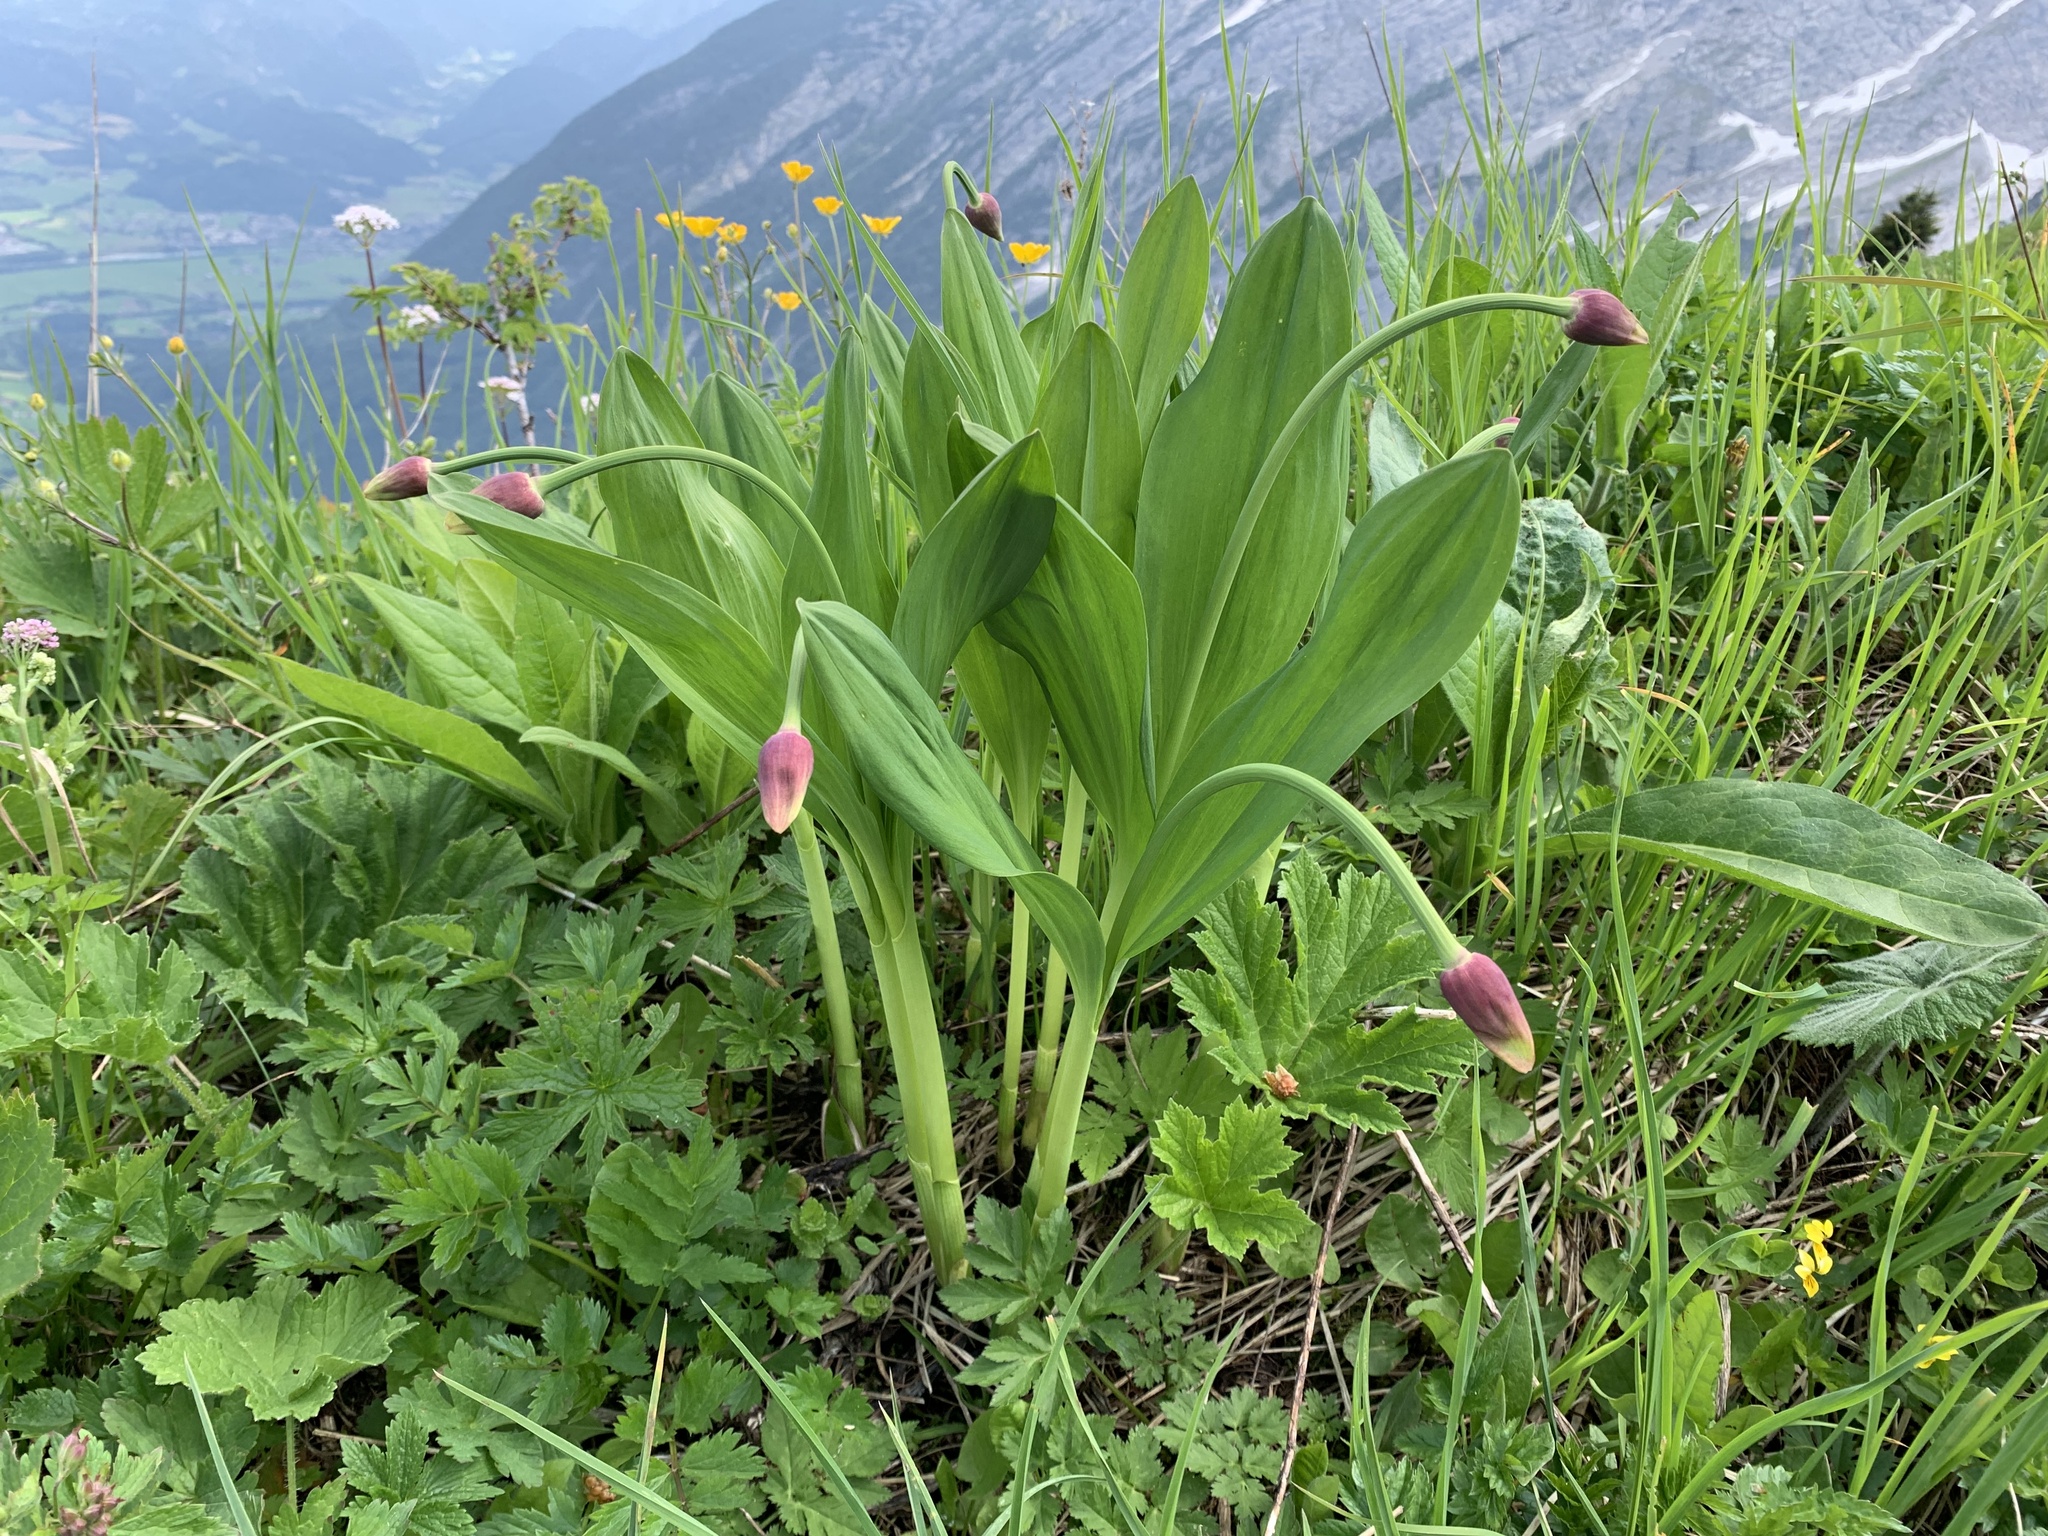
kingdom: Plantae
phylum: Tracheophyta
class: Liliopsida
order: Asparagales
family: Amaryllidaceae
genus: Allium
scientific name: Allium victorialis
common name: Alpine leek
